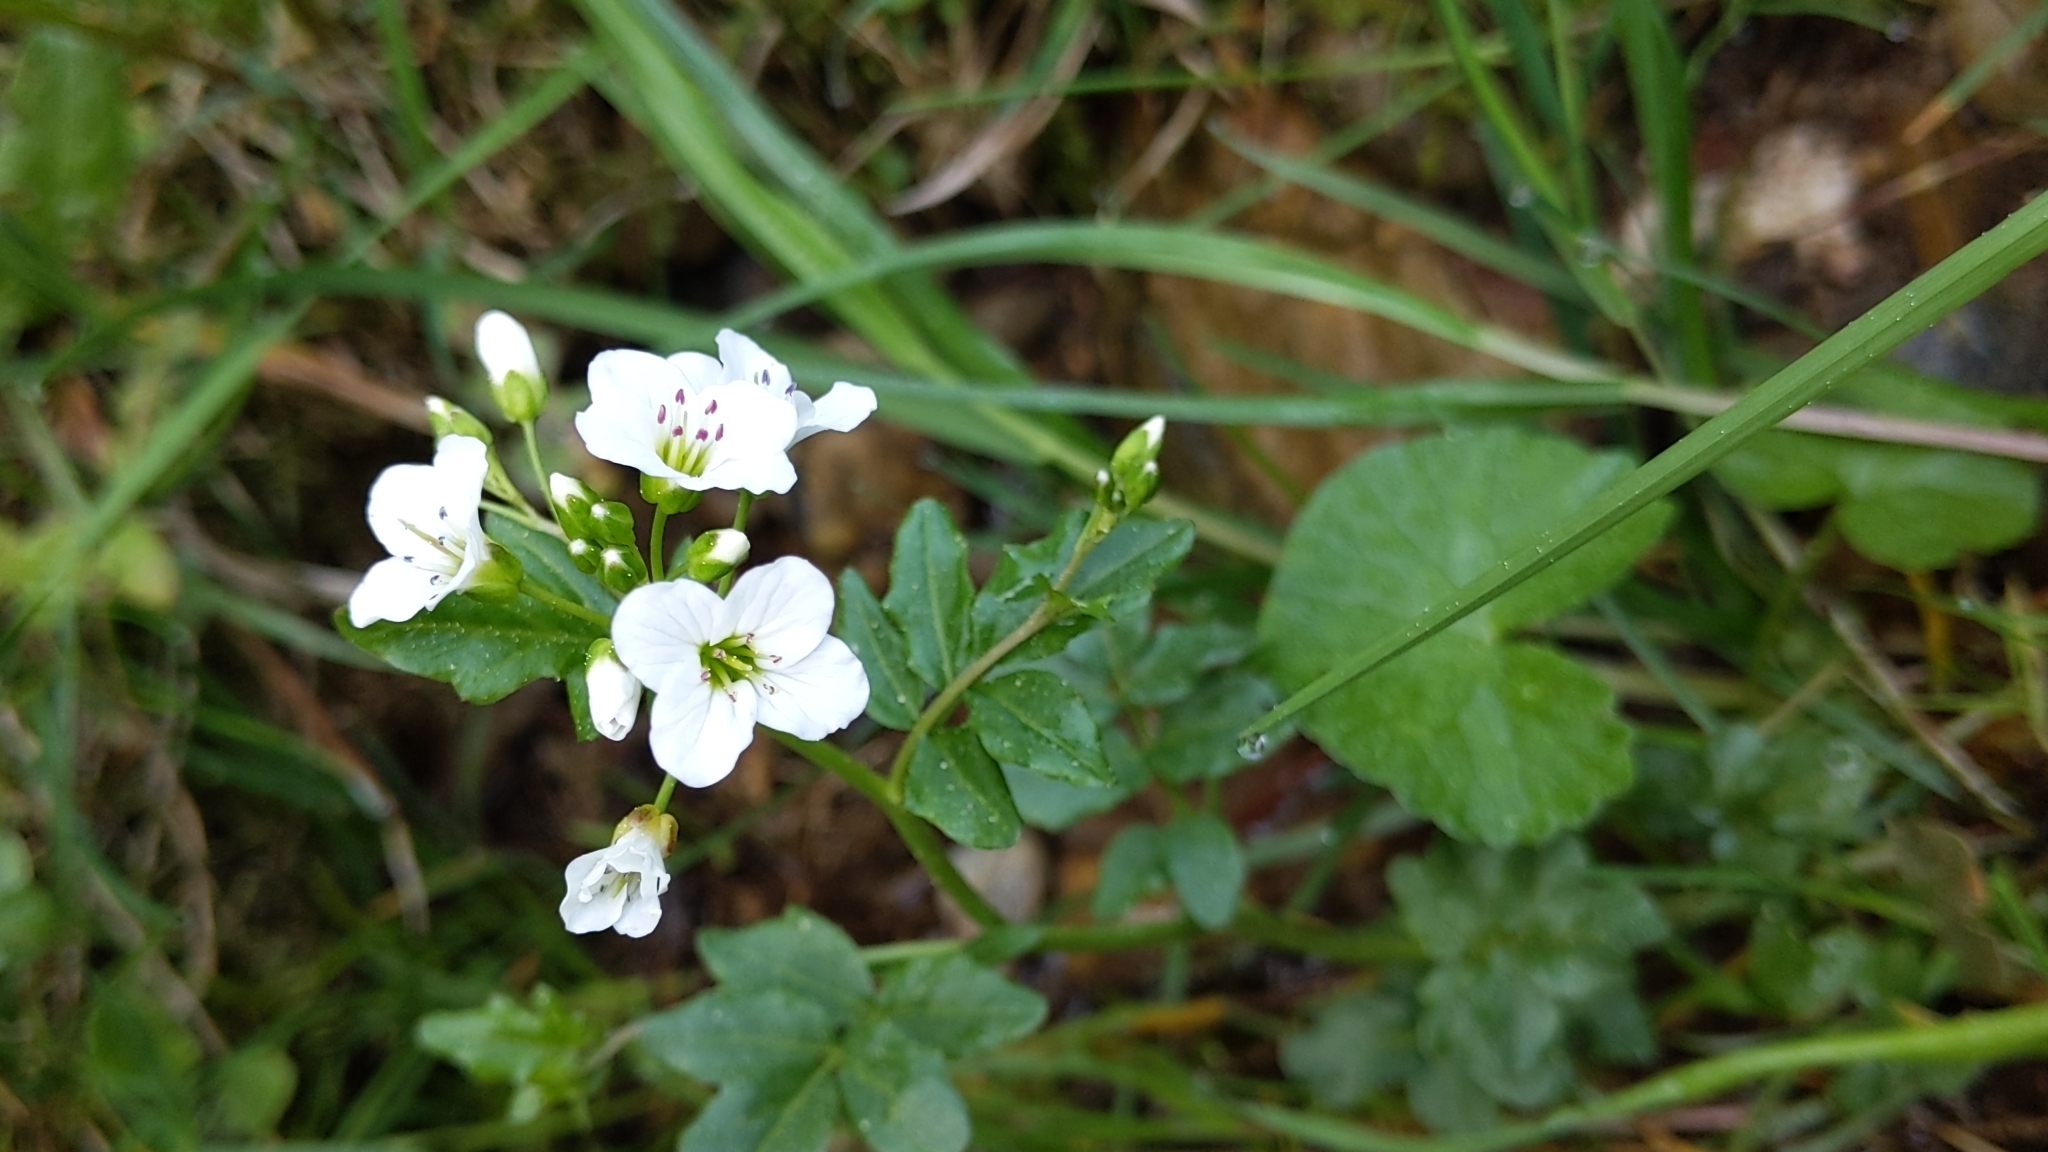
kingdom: Plantae
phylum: Tracheophyta
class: Magnoliopsida
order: Brassicales
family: Brassicaceae
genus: Cardamine
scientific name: Cardamine amara
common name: Large bitter-cress
